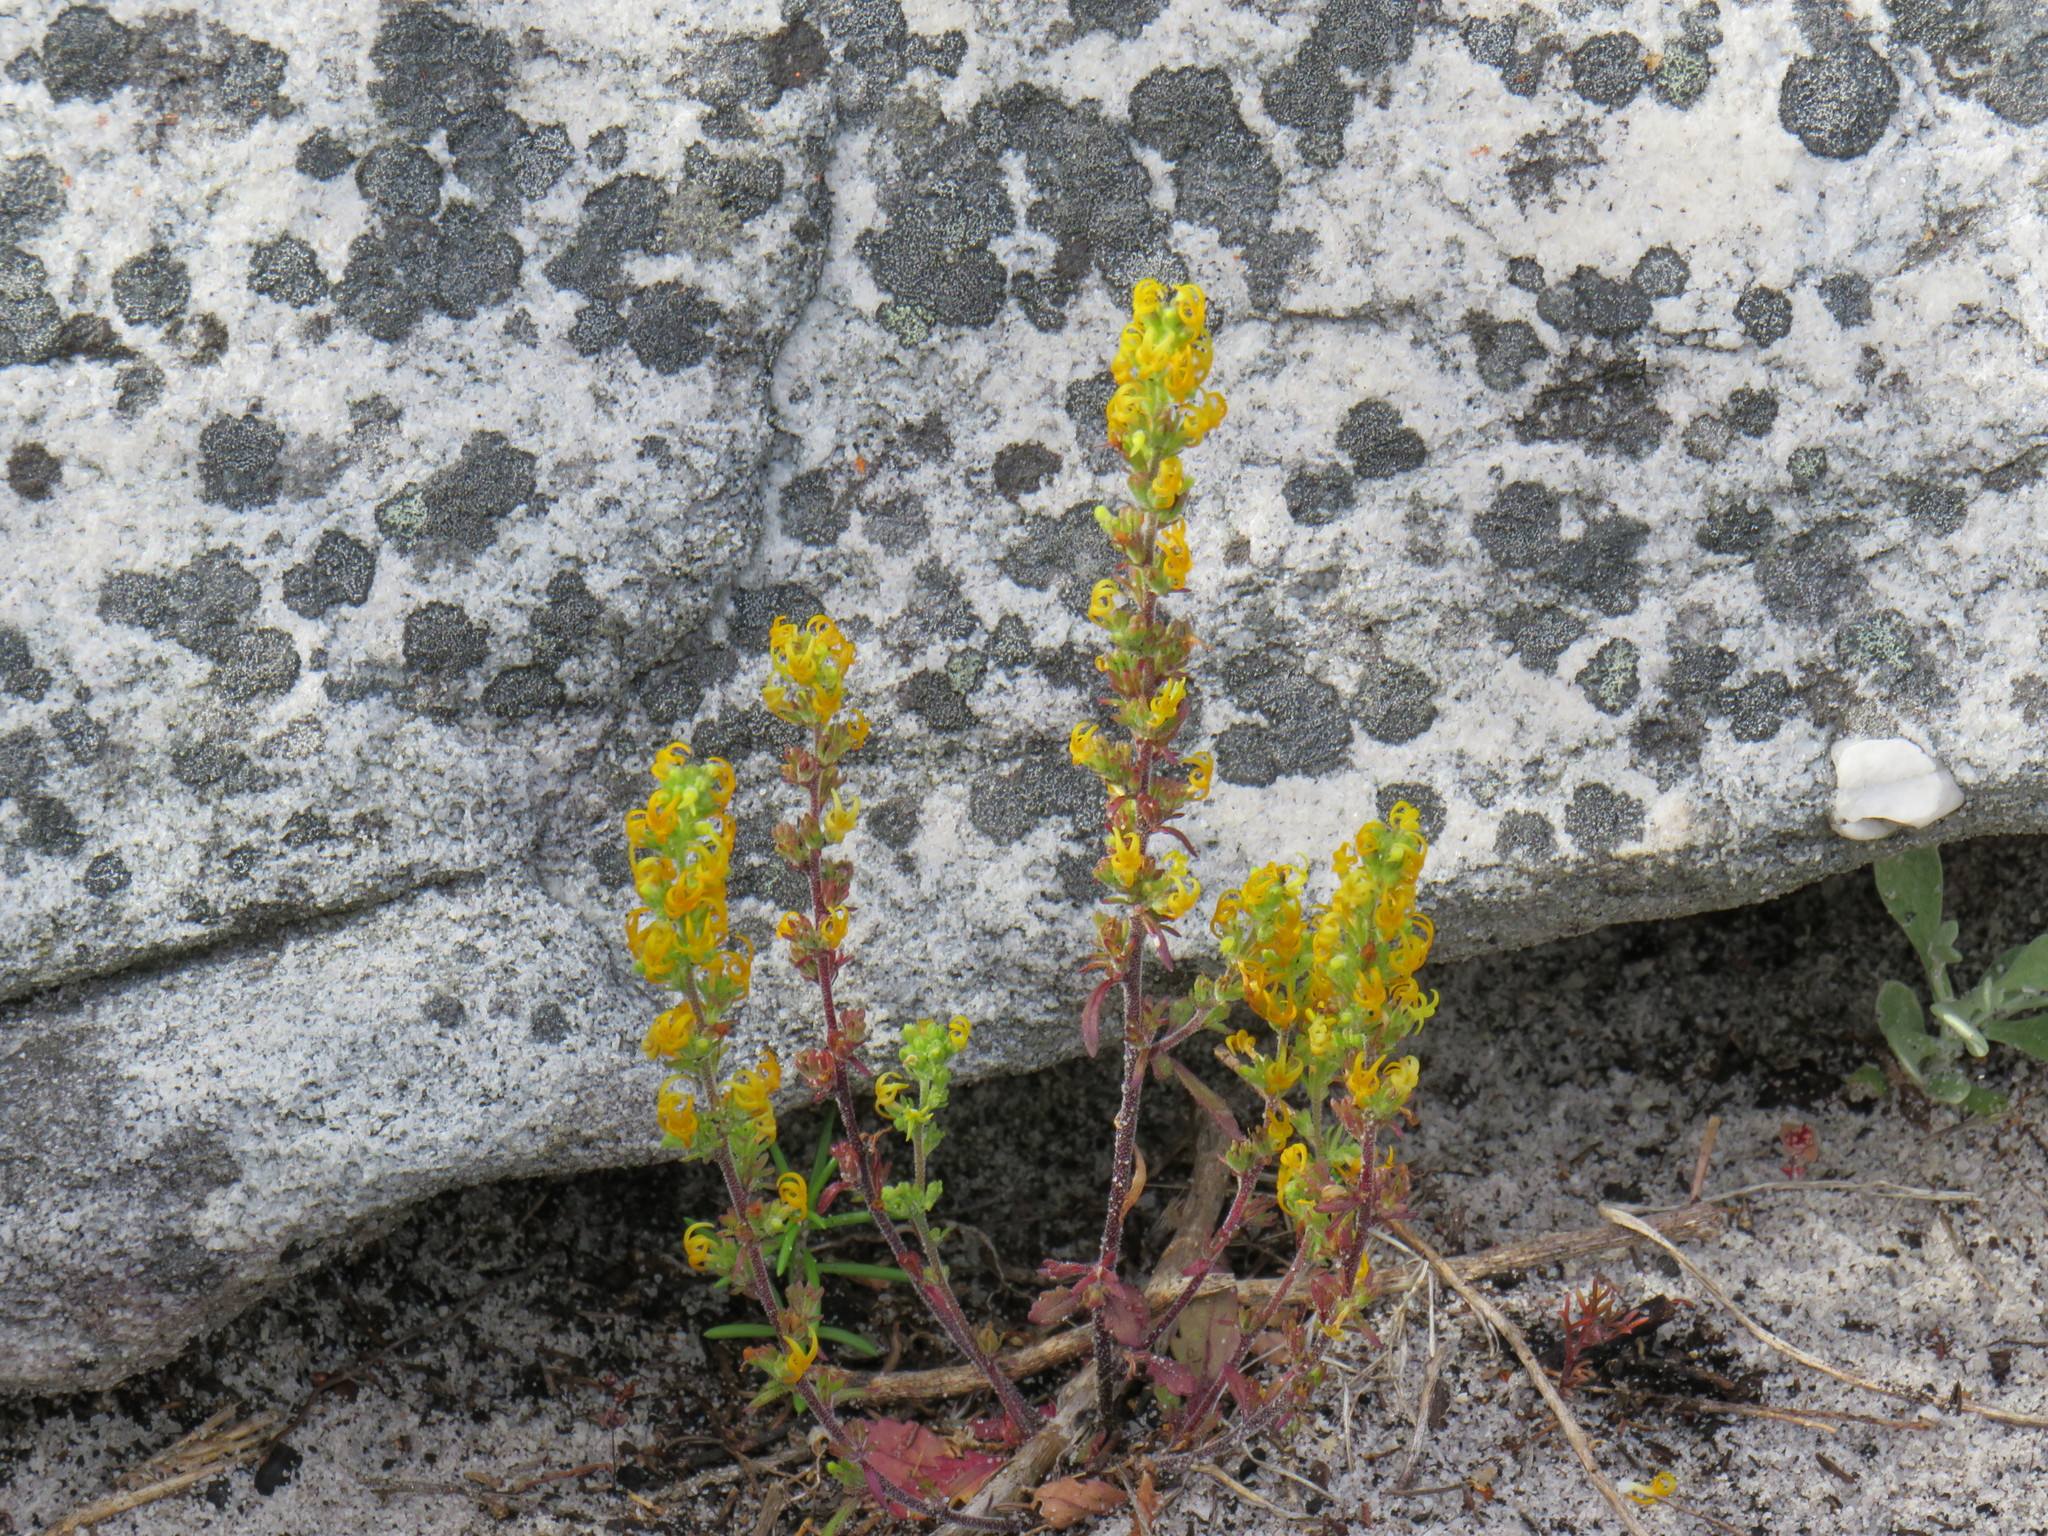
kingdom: Plantae
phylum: Tracheophyta
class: Magnoliopsida
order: Lamiales
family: Scrophulariaceae
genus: Manulea
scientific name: Manulea cheiranthus
